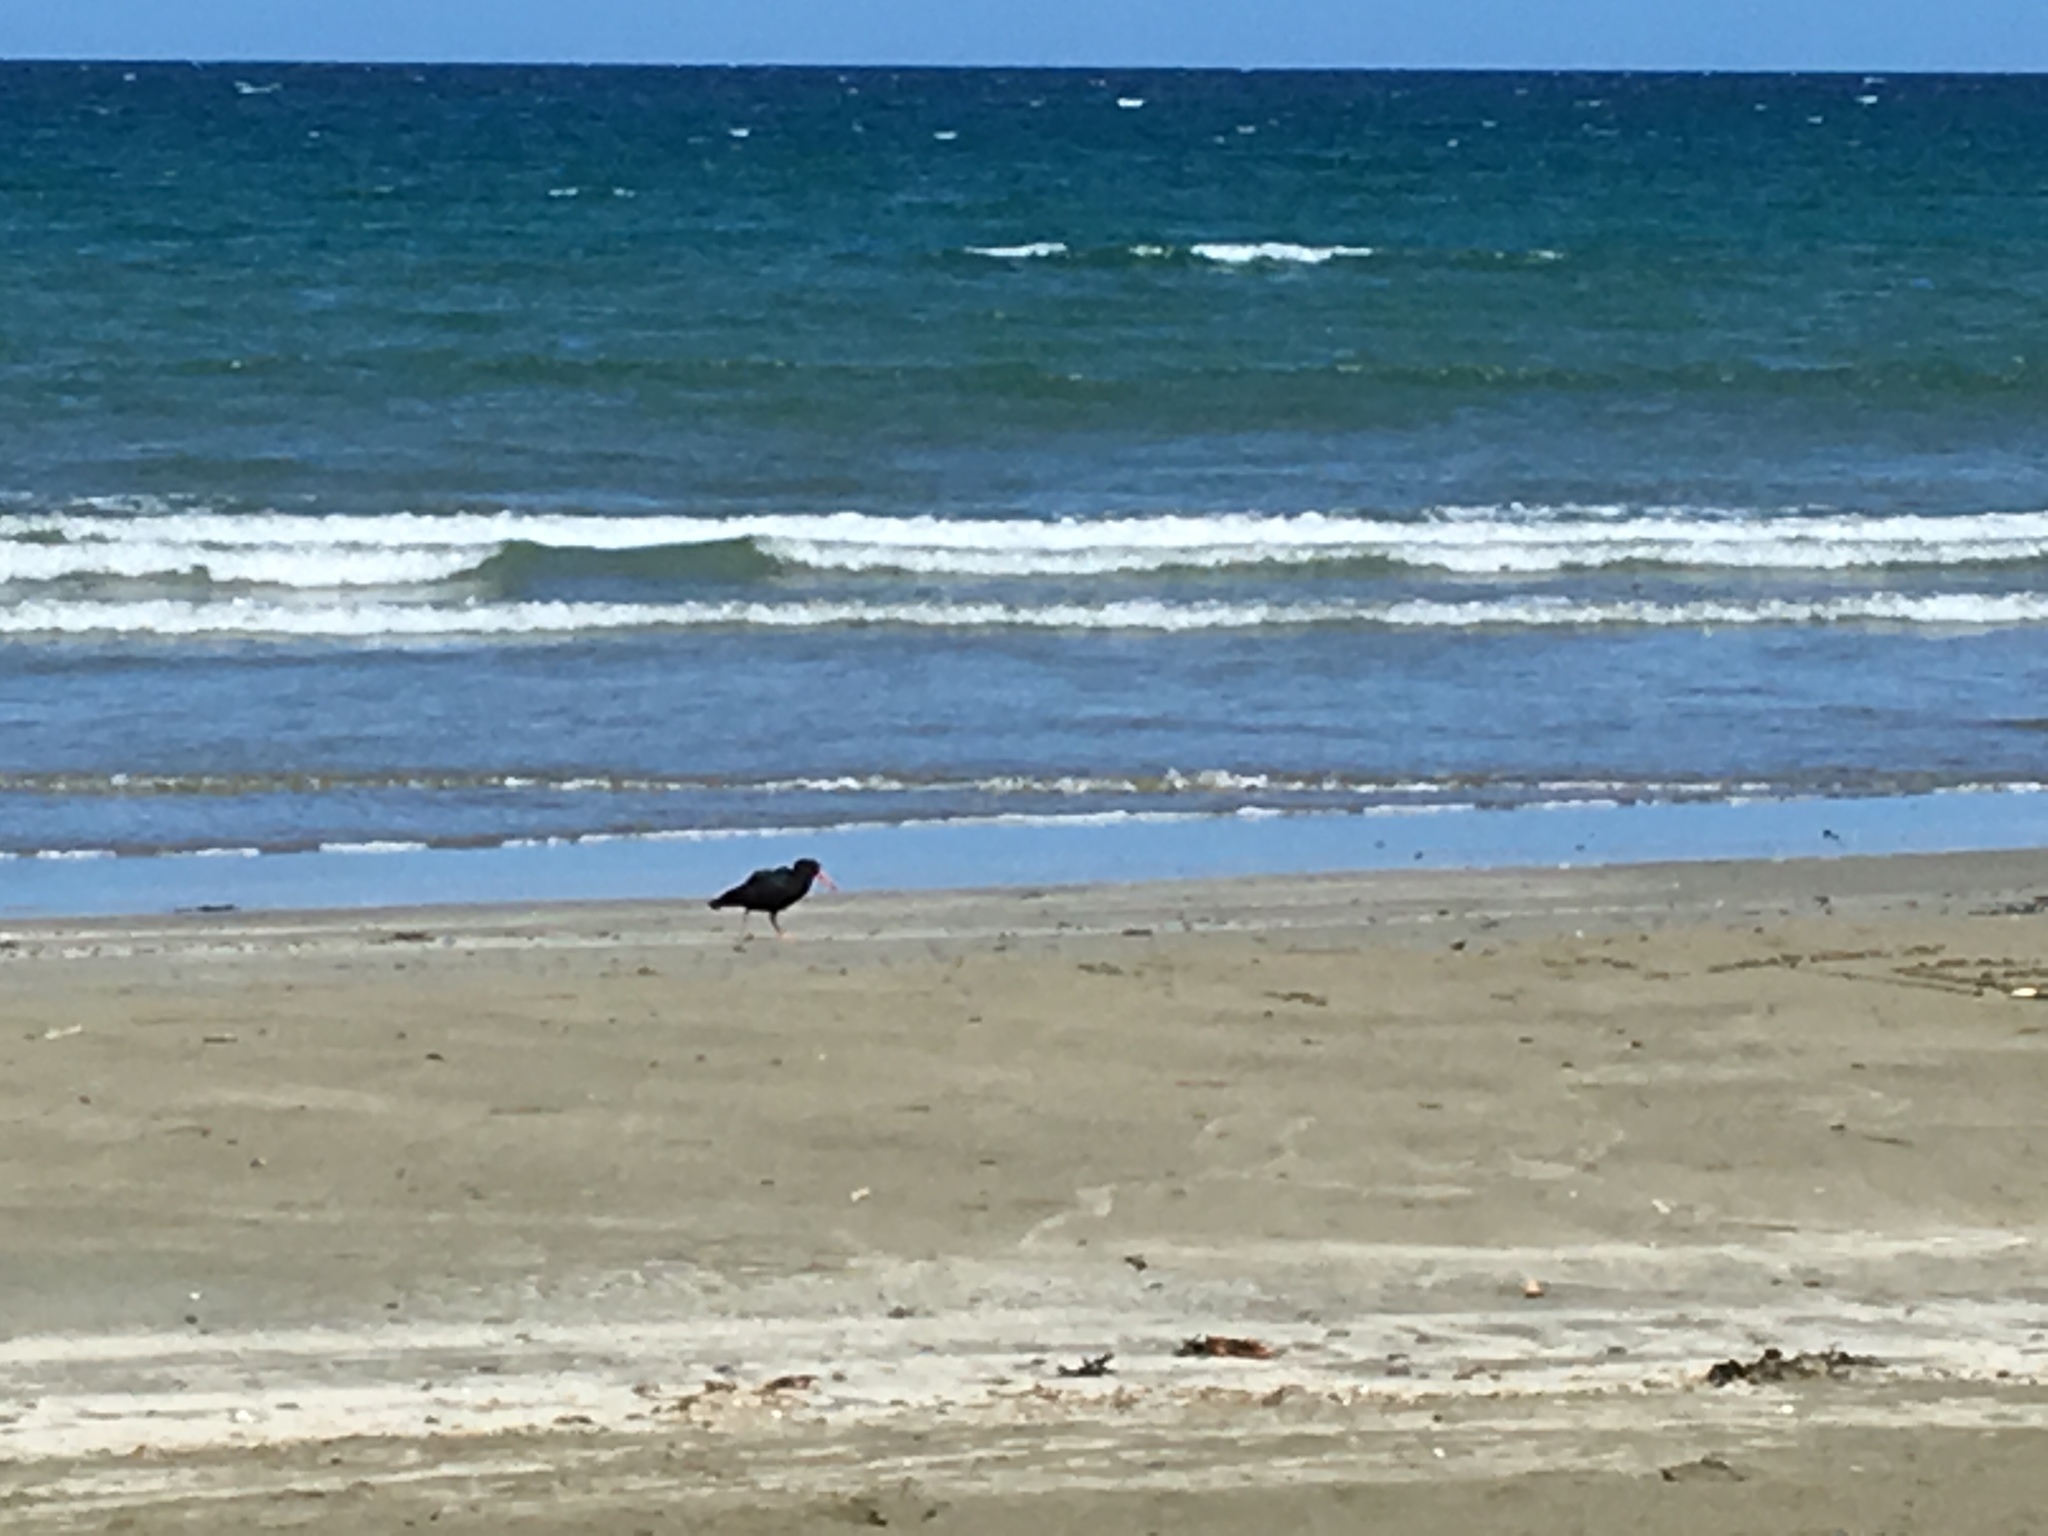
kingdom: Animalia
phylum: Chordata
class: Aves
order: Charadriiformes
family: Haematopodidae
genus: Haematopus
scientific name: Haematopus unicolor
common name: Variable oystercatcher
